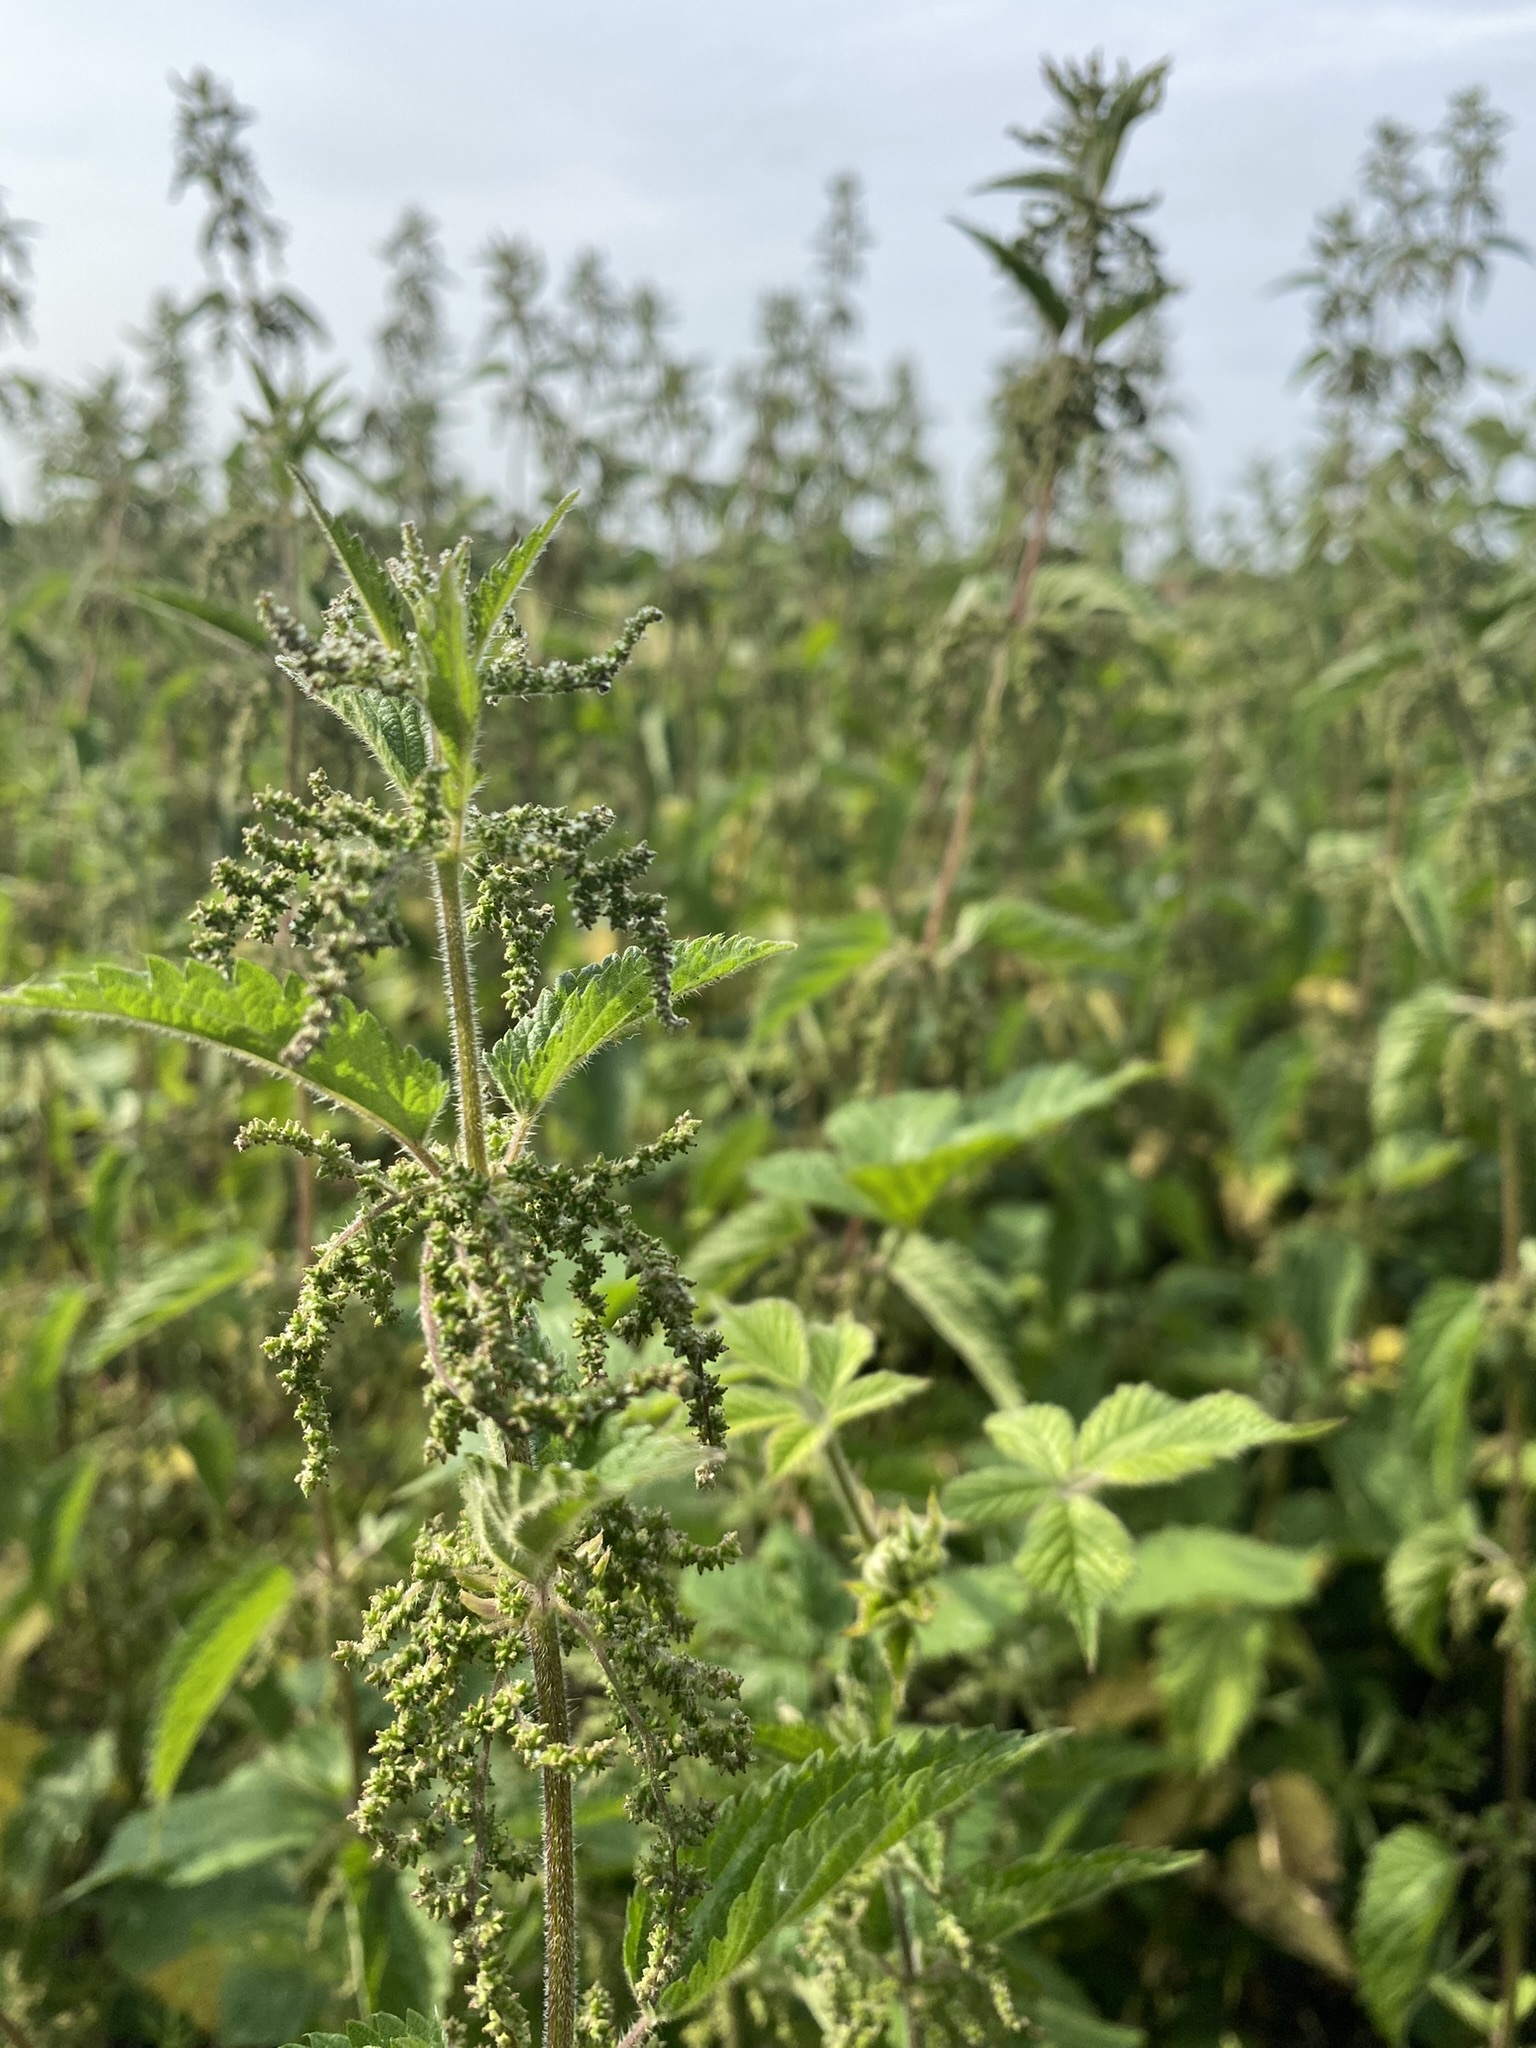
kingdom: Plantae
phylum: Tracheophyta
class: Magnoliopsida
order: Rosales
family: Urticaceae
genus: Urtica
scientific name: Urtica dioica
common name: Common nettle
